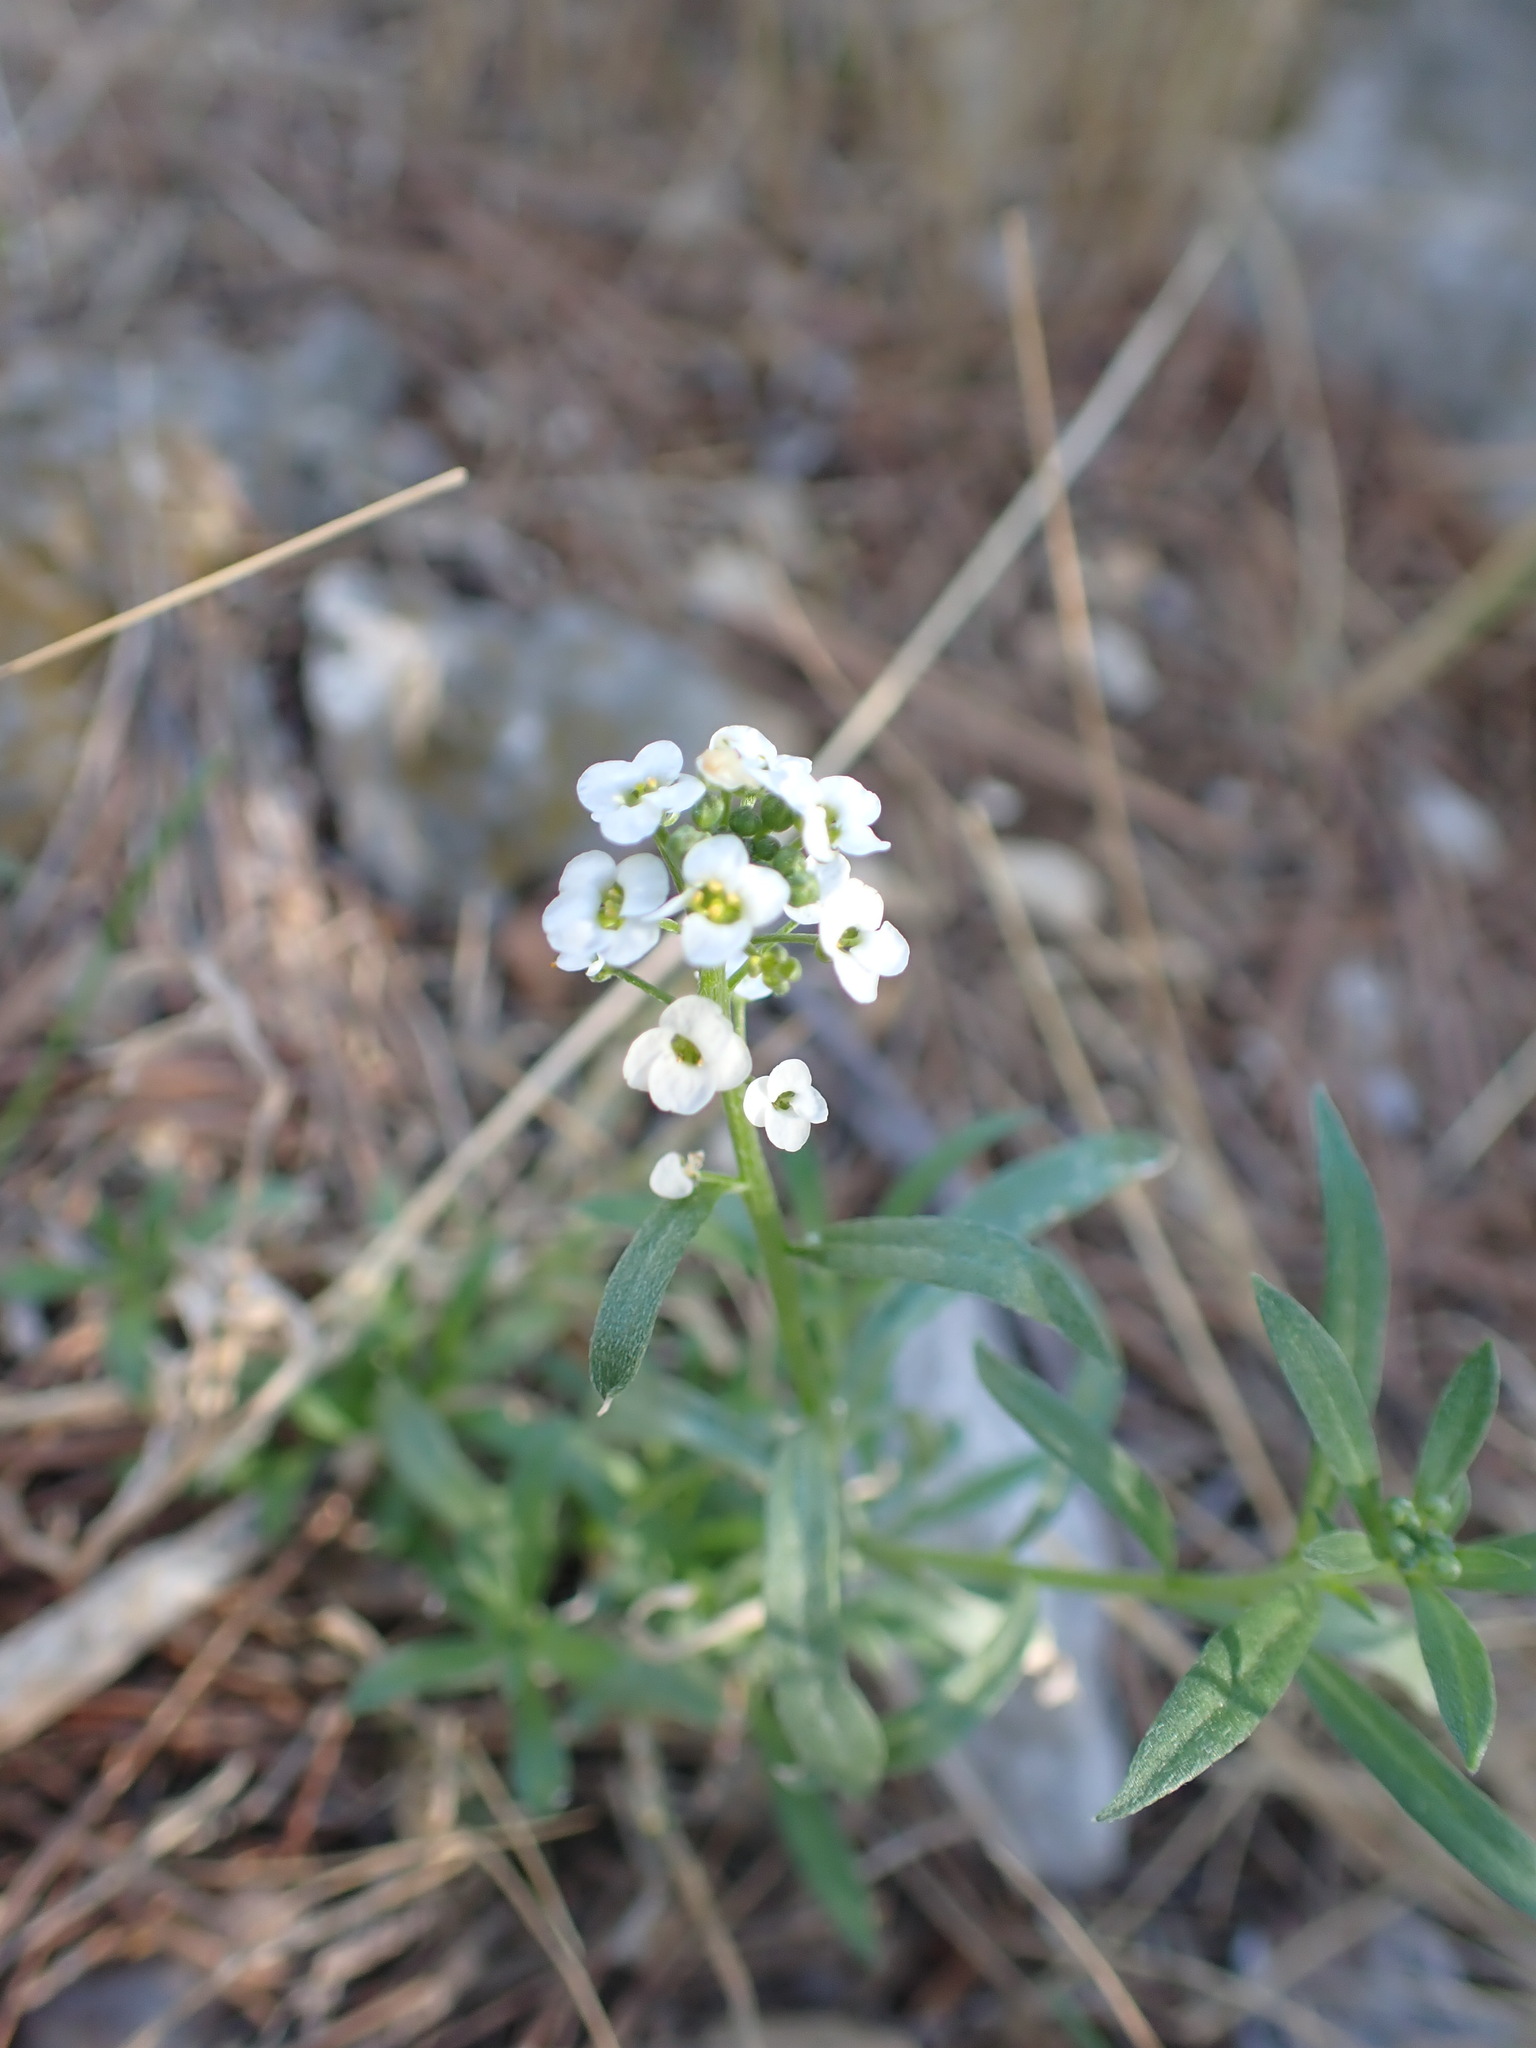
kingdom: Plantae
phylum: Tracheophyta
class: Magnoliopsida
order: Brassicales
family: Brassicaceae
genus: Lobularia
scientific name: Lobularia maritima
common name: Sweet alison
